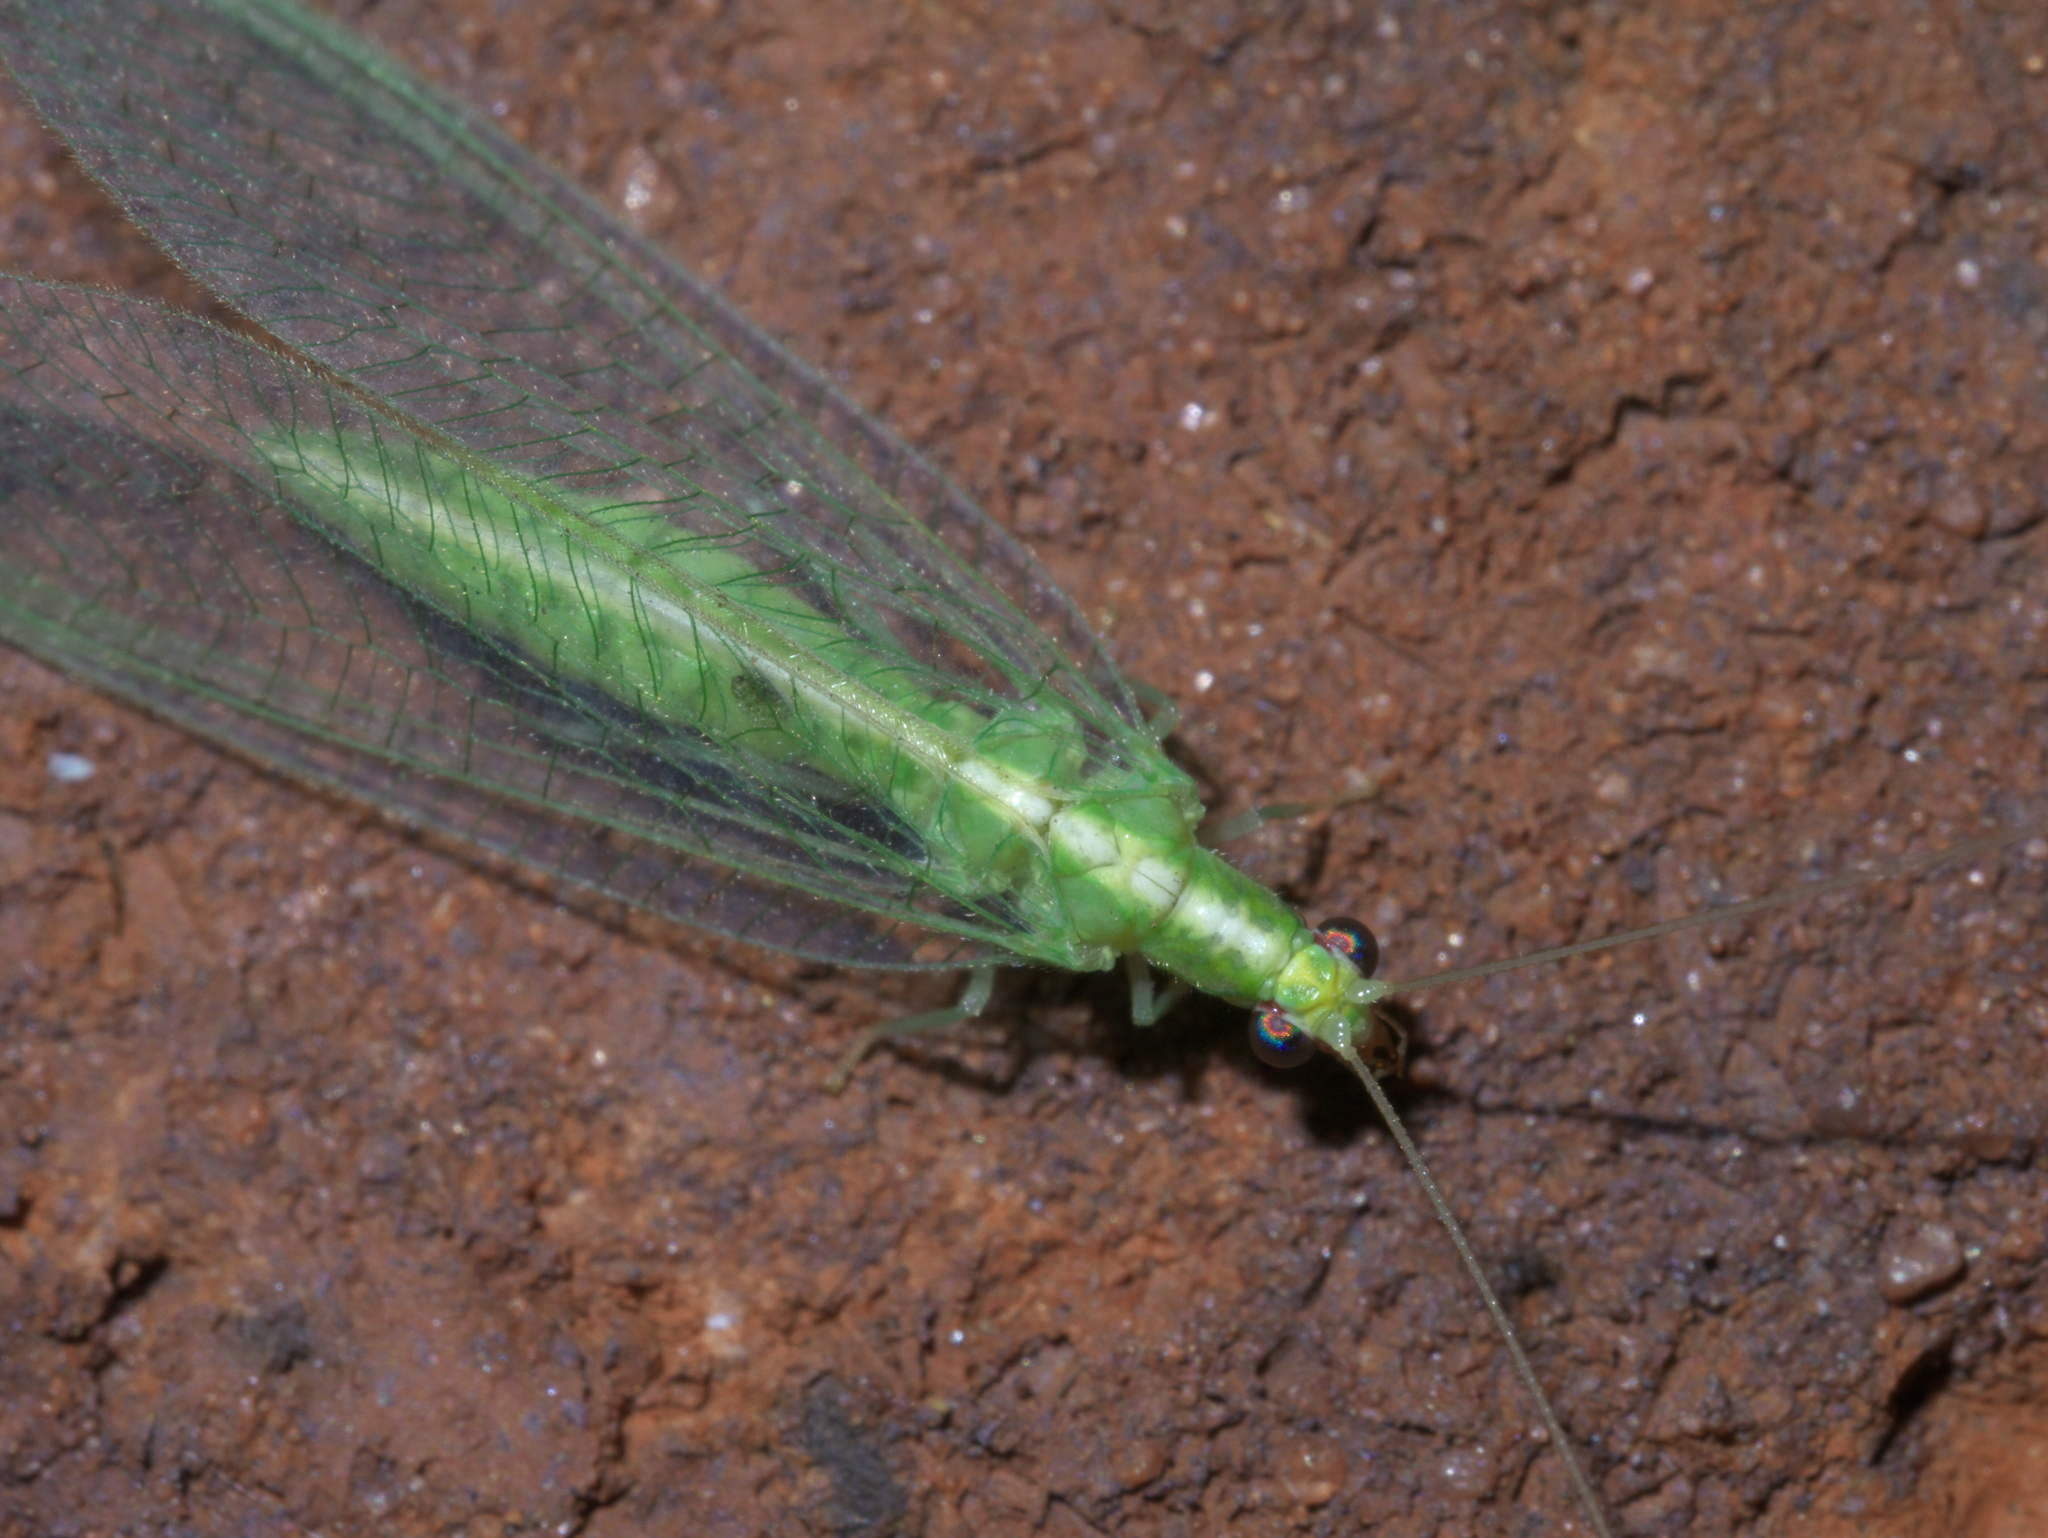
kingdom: Animalia
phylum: Arthropoda
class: Insecta
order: Neuroptera
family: Chrysopidae
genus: Chrysoperla
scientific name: Chrysoperla rufilabris
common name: Red-lipped green lacewing
